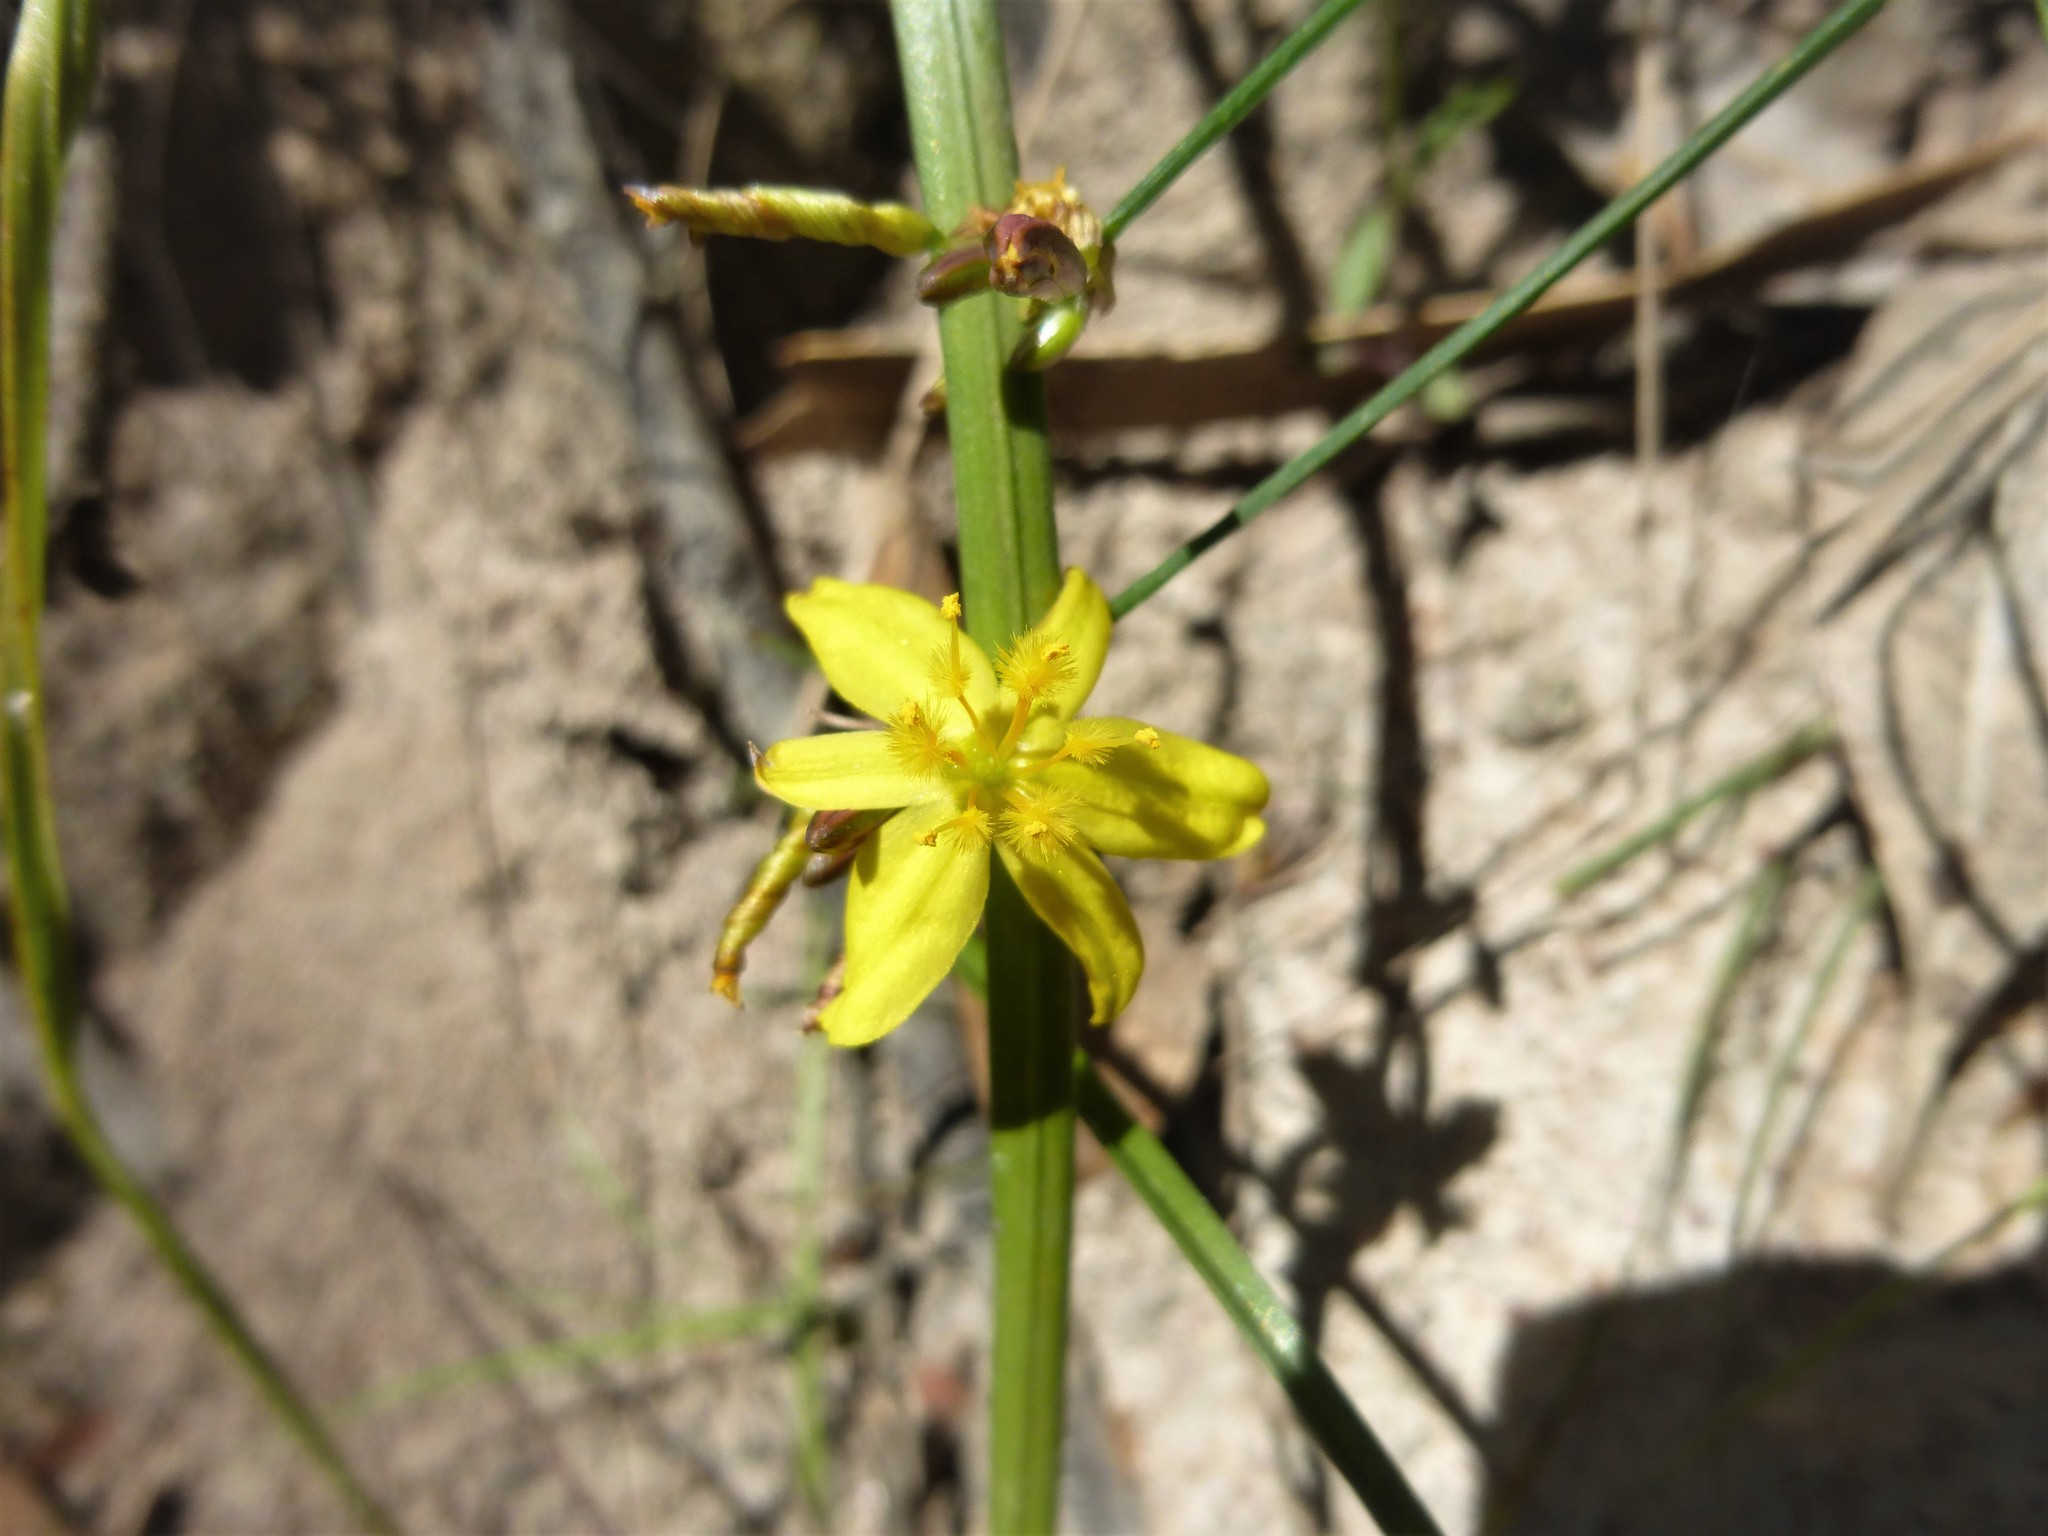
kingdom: Plantae
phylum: Tracheophyta
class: Liliopsida
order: Asparagales
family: Asphodelaceae
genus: Tricoryne
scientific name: Tricoryne elatior
